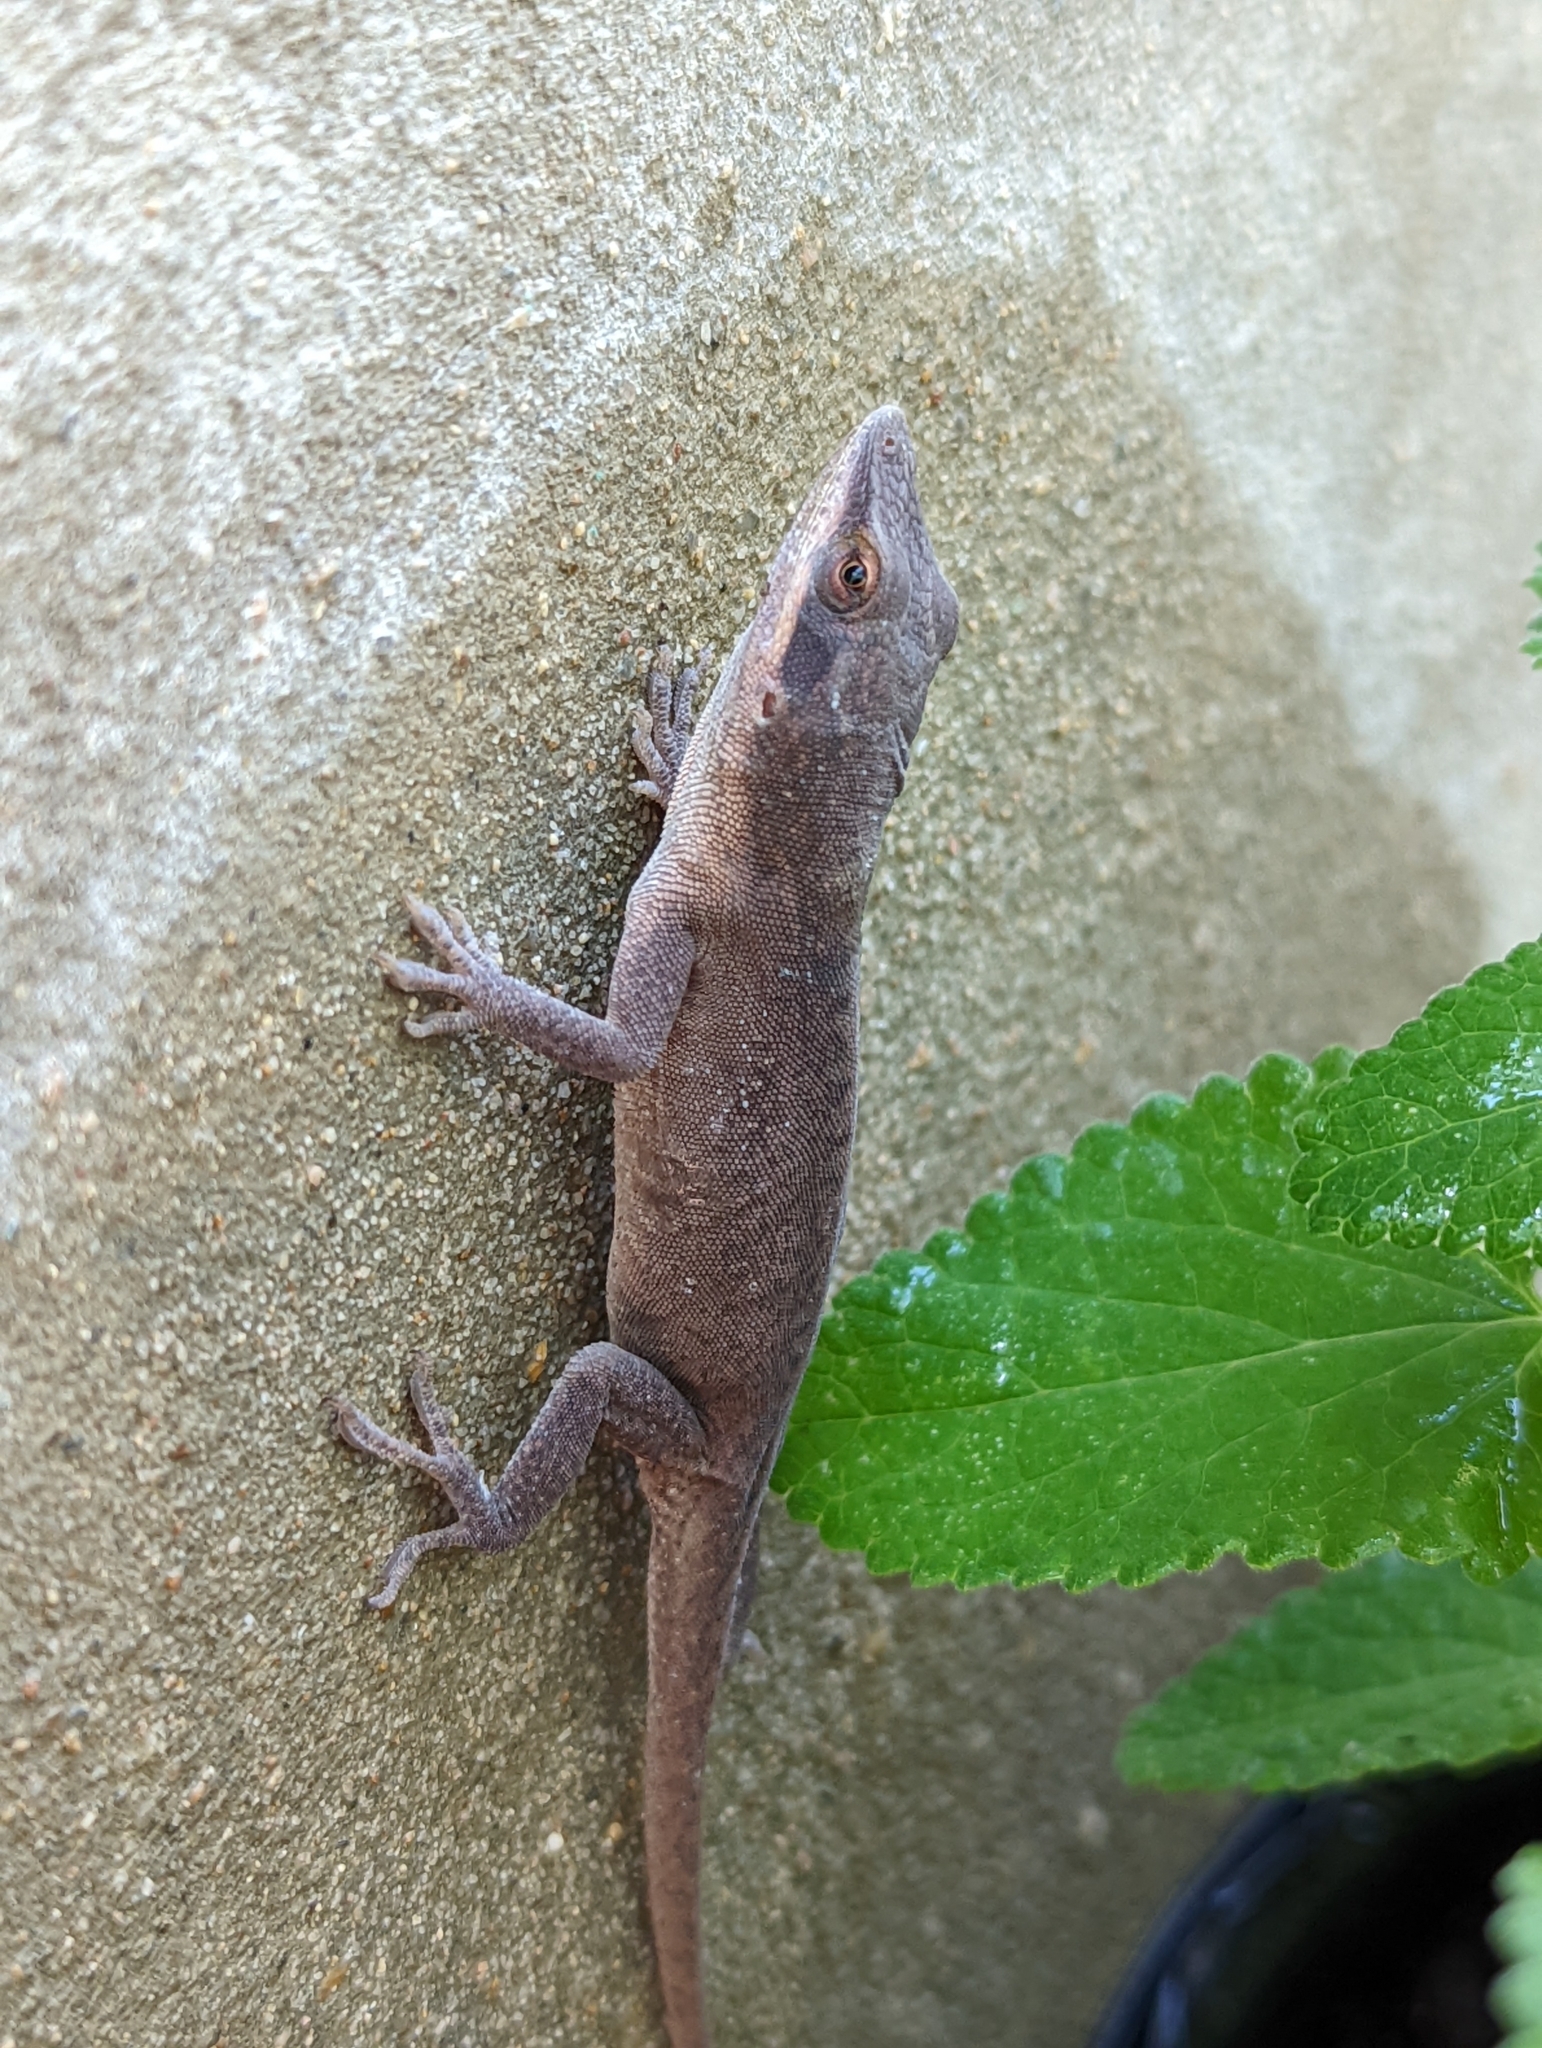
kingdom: Animalia
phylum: Chordata
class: Squamata
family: Dactyloidae
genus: Anolis
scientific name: Anolis carolinensis
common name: Green anole
